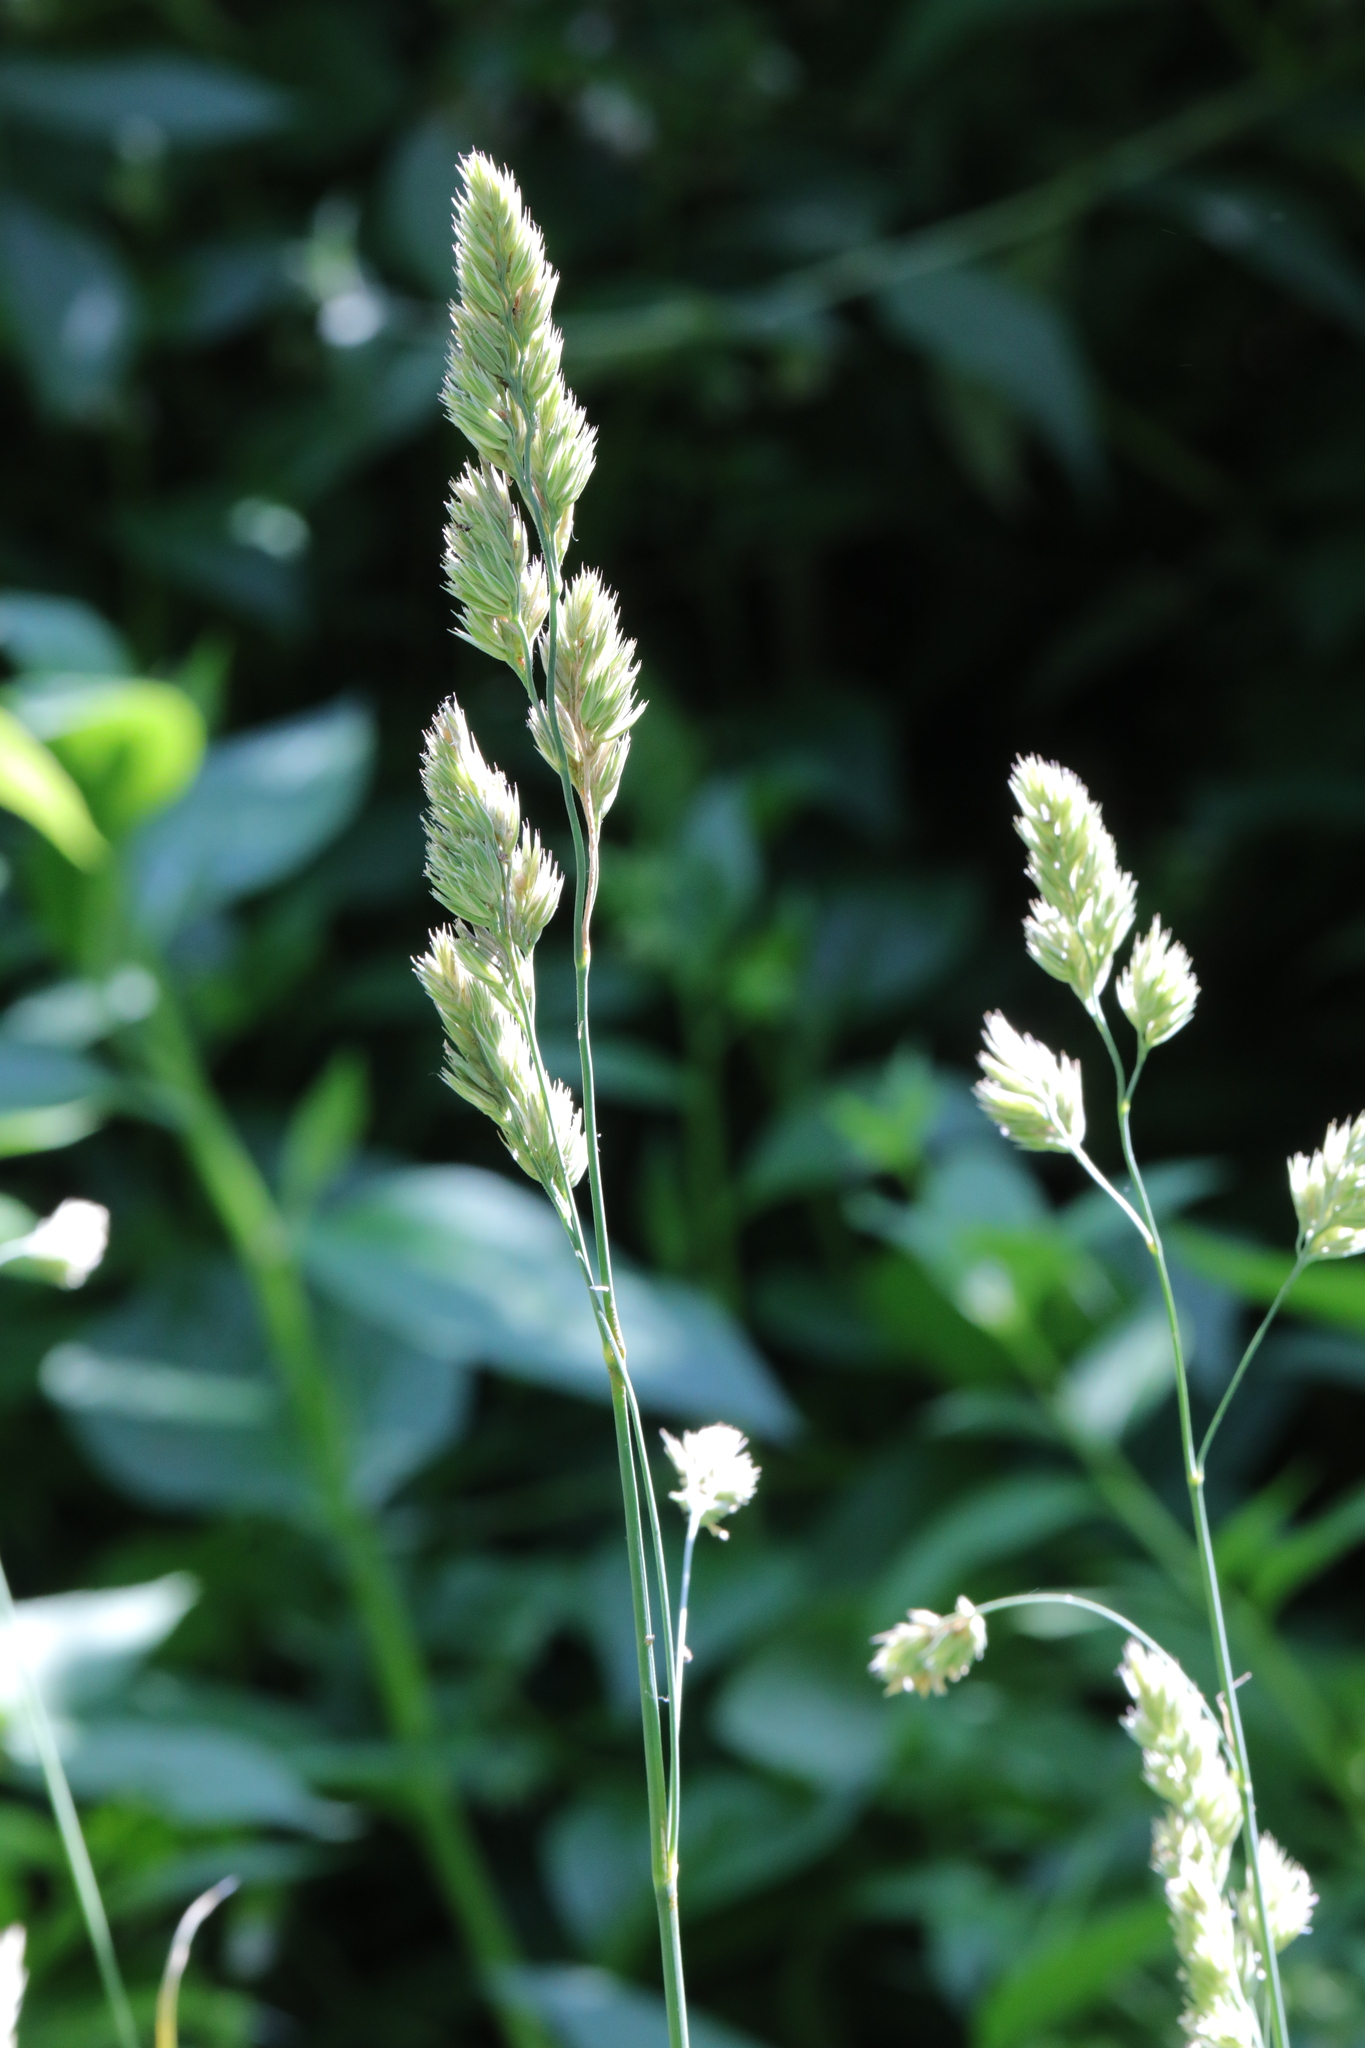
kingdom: Plantae
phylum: Tracheophyta
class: Liliopsida
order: Poales
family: Poaceae
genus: Dactylis
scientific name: Dactylis glomerata
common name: Orchardgrass
